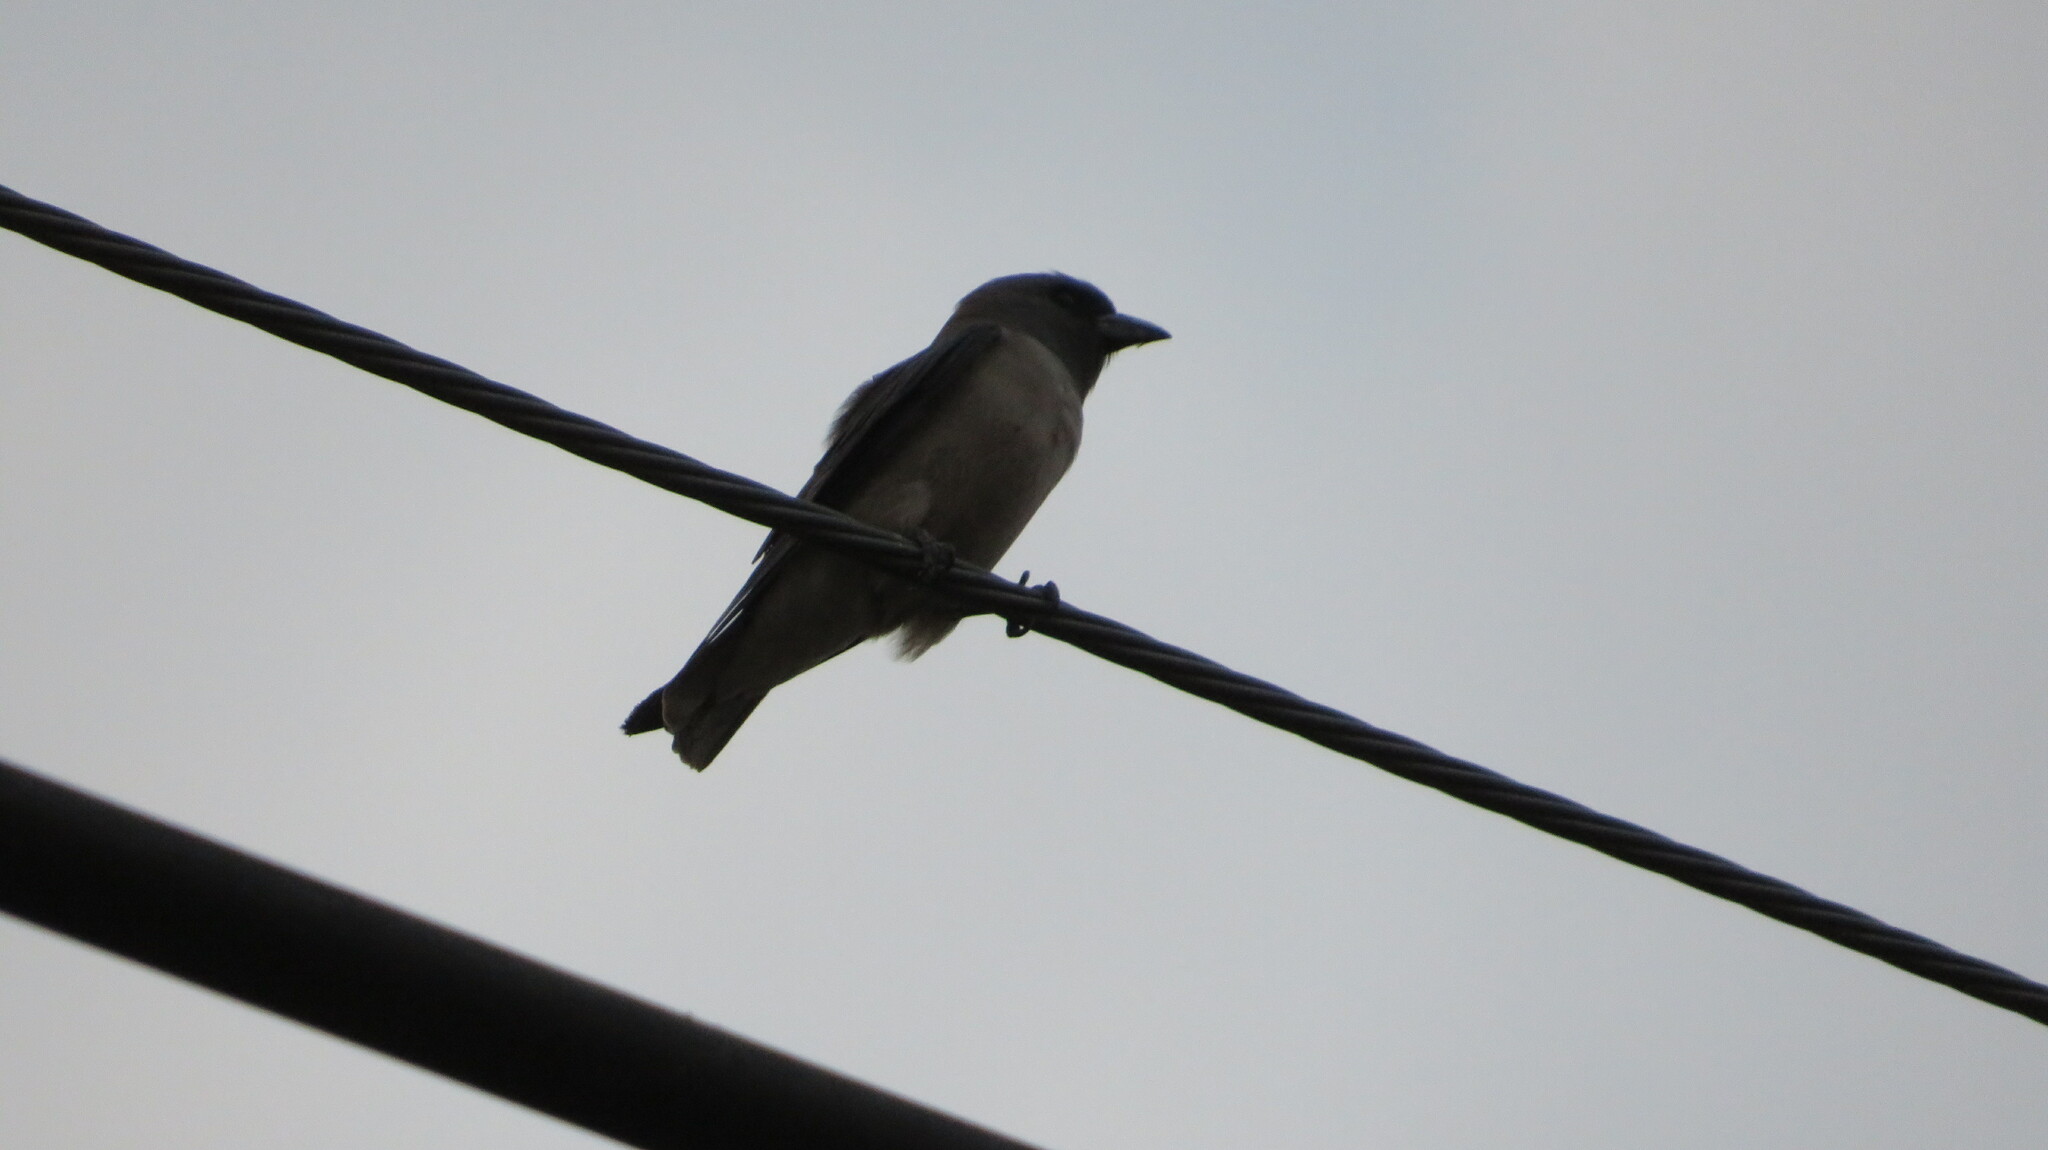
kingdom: Animalia
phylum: Chordata
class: Aves
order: Passeriformes
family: Artamidae
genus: Artamus
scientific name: Artamus fuscus
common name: Ashy woodswallow
